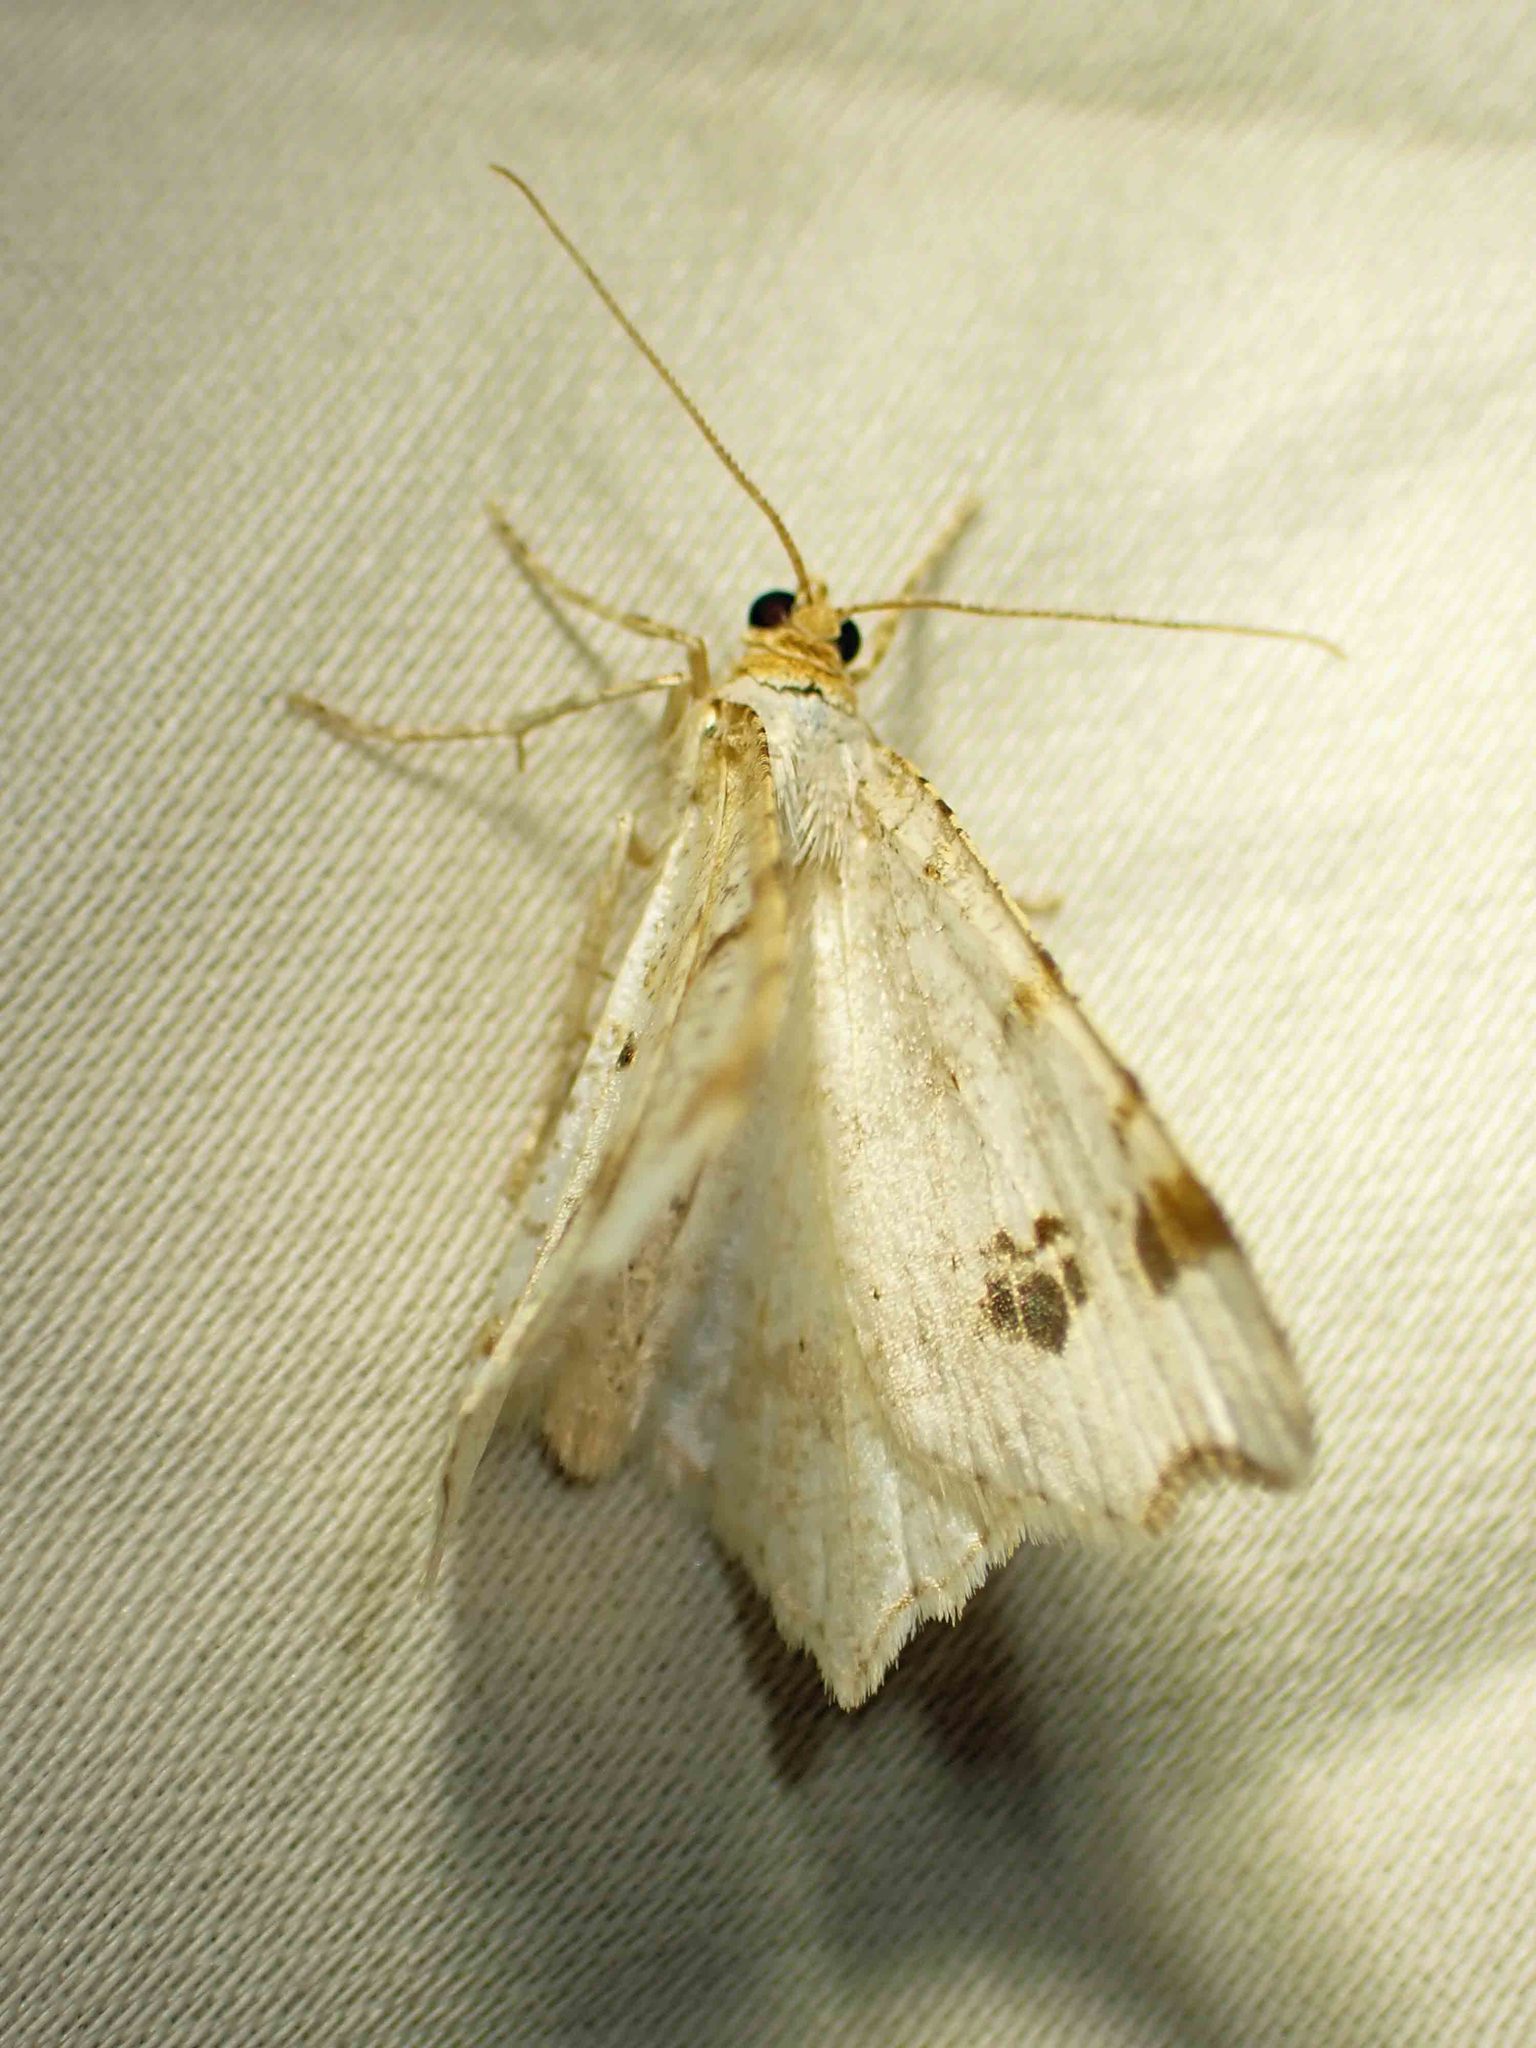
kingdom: Animalia
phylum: Arthropoda
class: Insecta
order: Lepidoptera
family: Geometridae
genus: Macaria
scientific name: Macaria ulsterata
